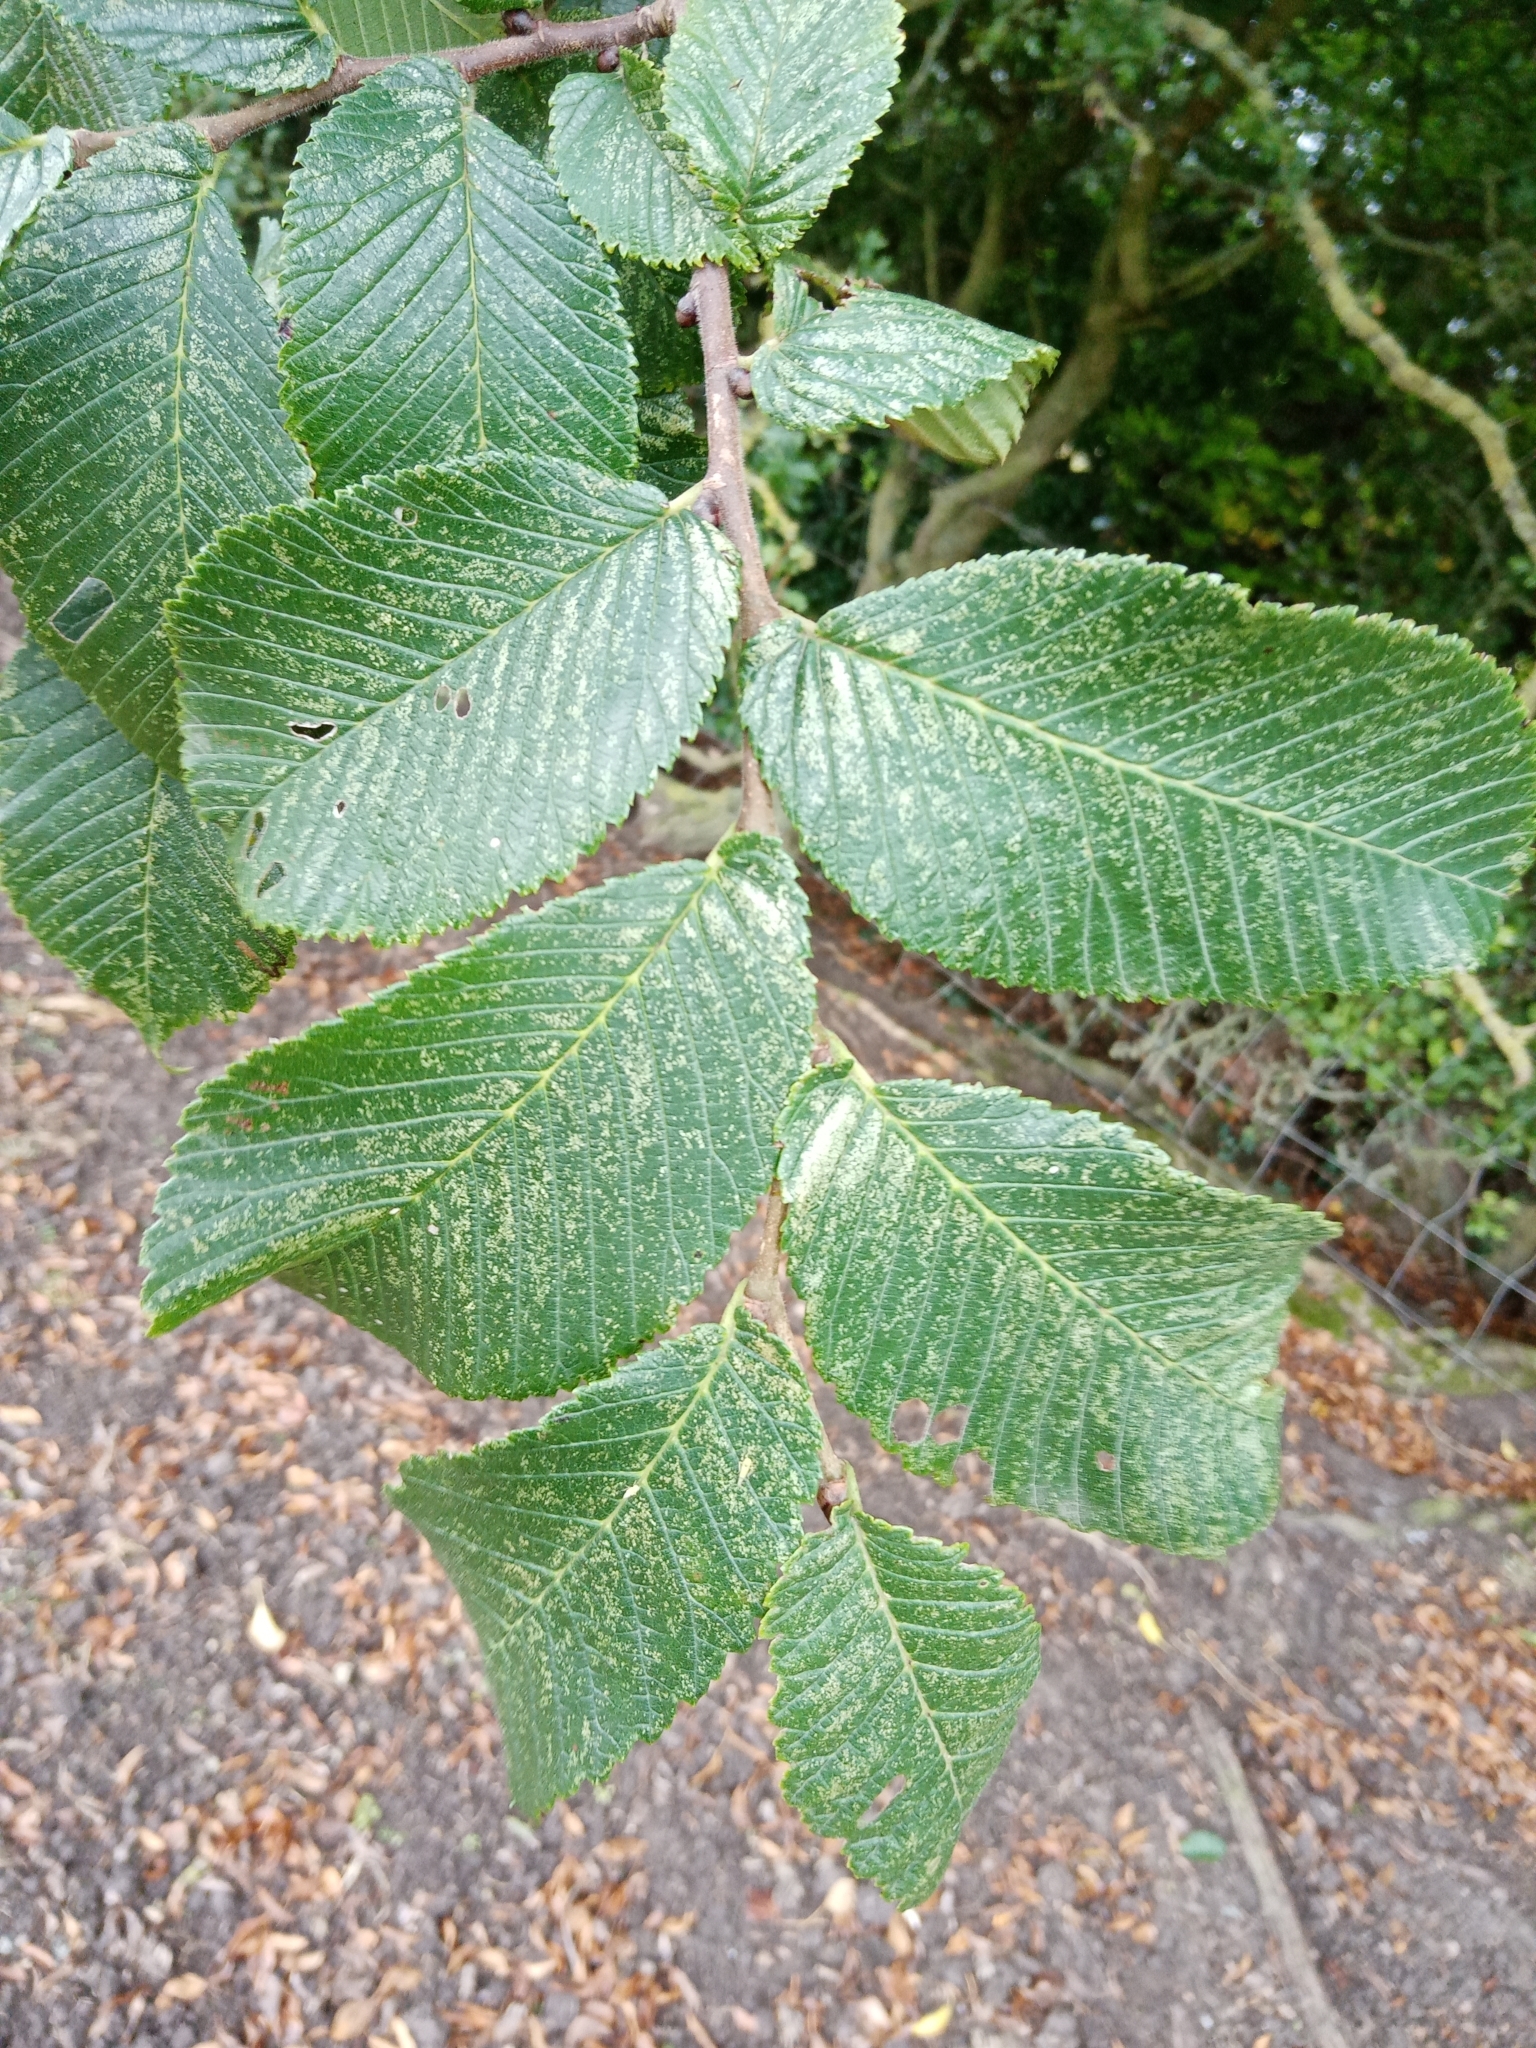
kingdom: Plantae
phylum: Tracheophyta
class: Magnoliopsida
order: Rosales
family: Ulmaceae
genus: Ulmus
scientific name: Ulmus glabra
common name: Wych elm
